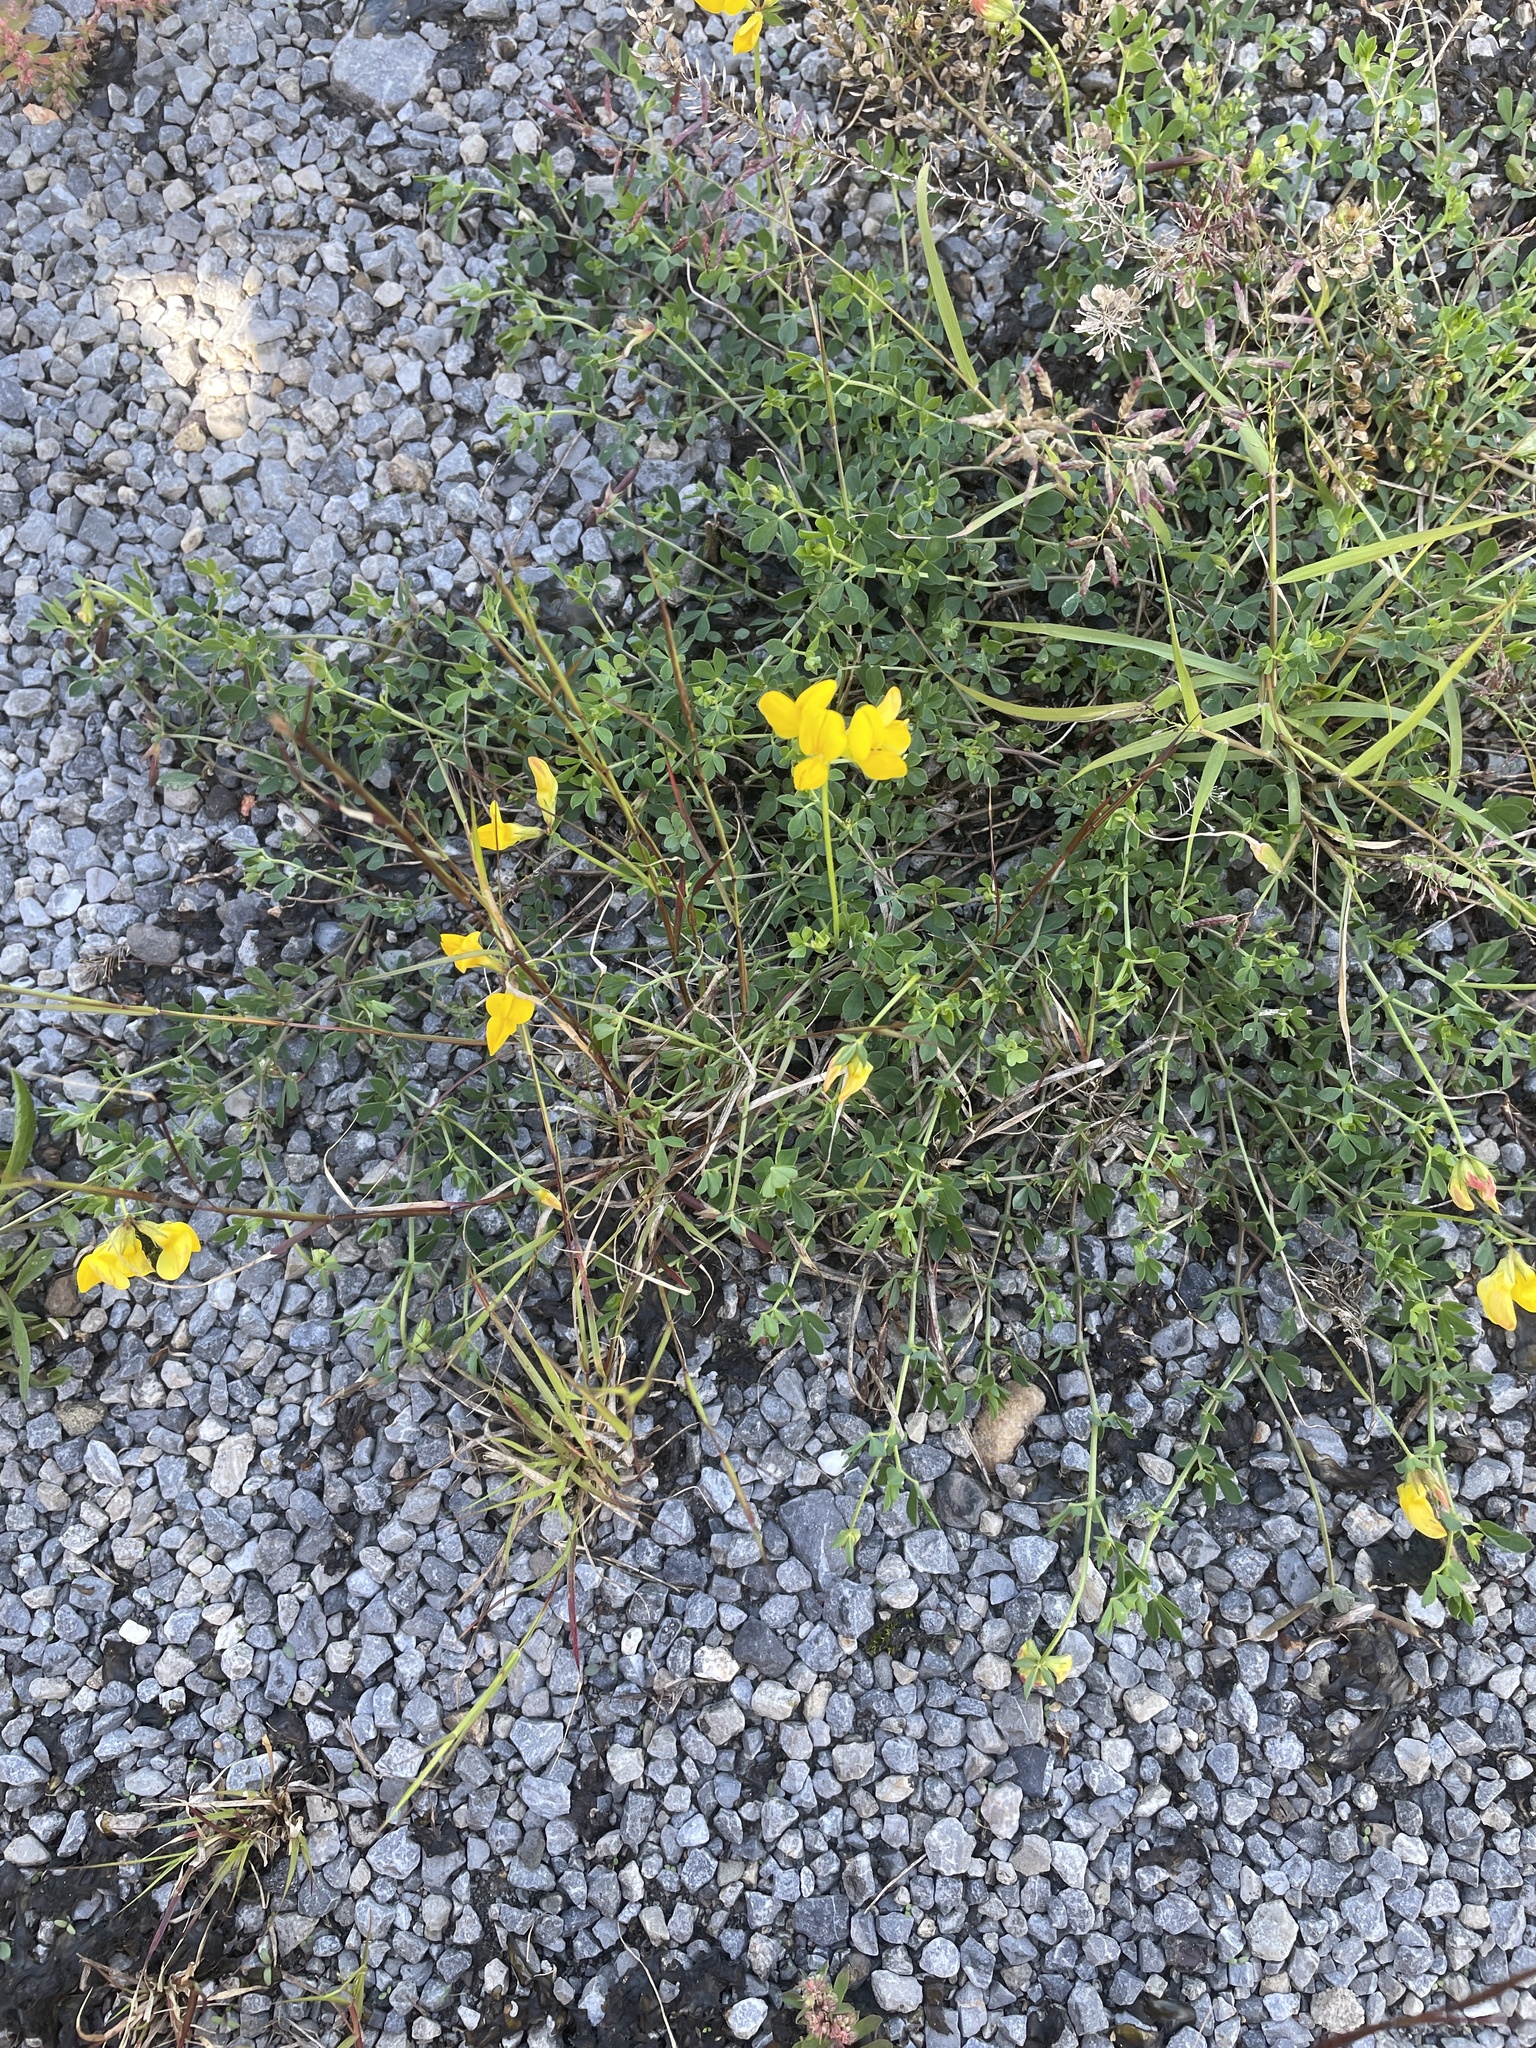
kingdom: Plantae
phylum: Tracheophyta
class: Magnoliopsida
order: Fabales
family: Fabaceae
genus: Lotus
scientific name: Lotus corniculatus
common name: Common bird's-foot-trefoil
